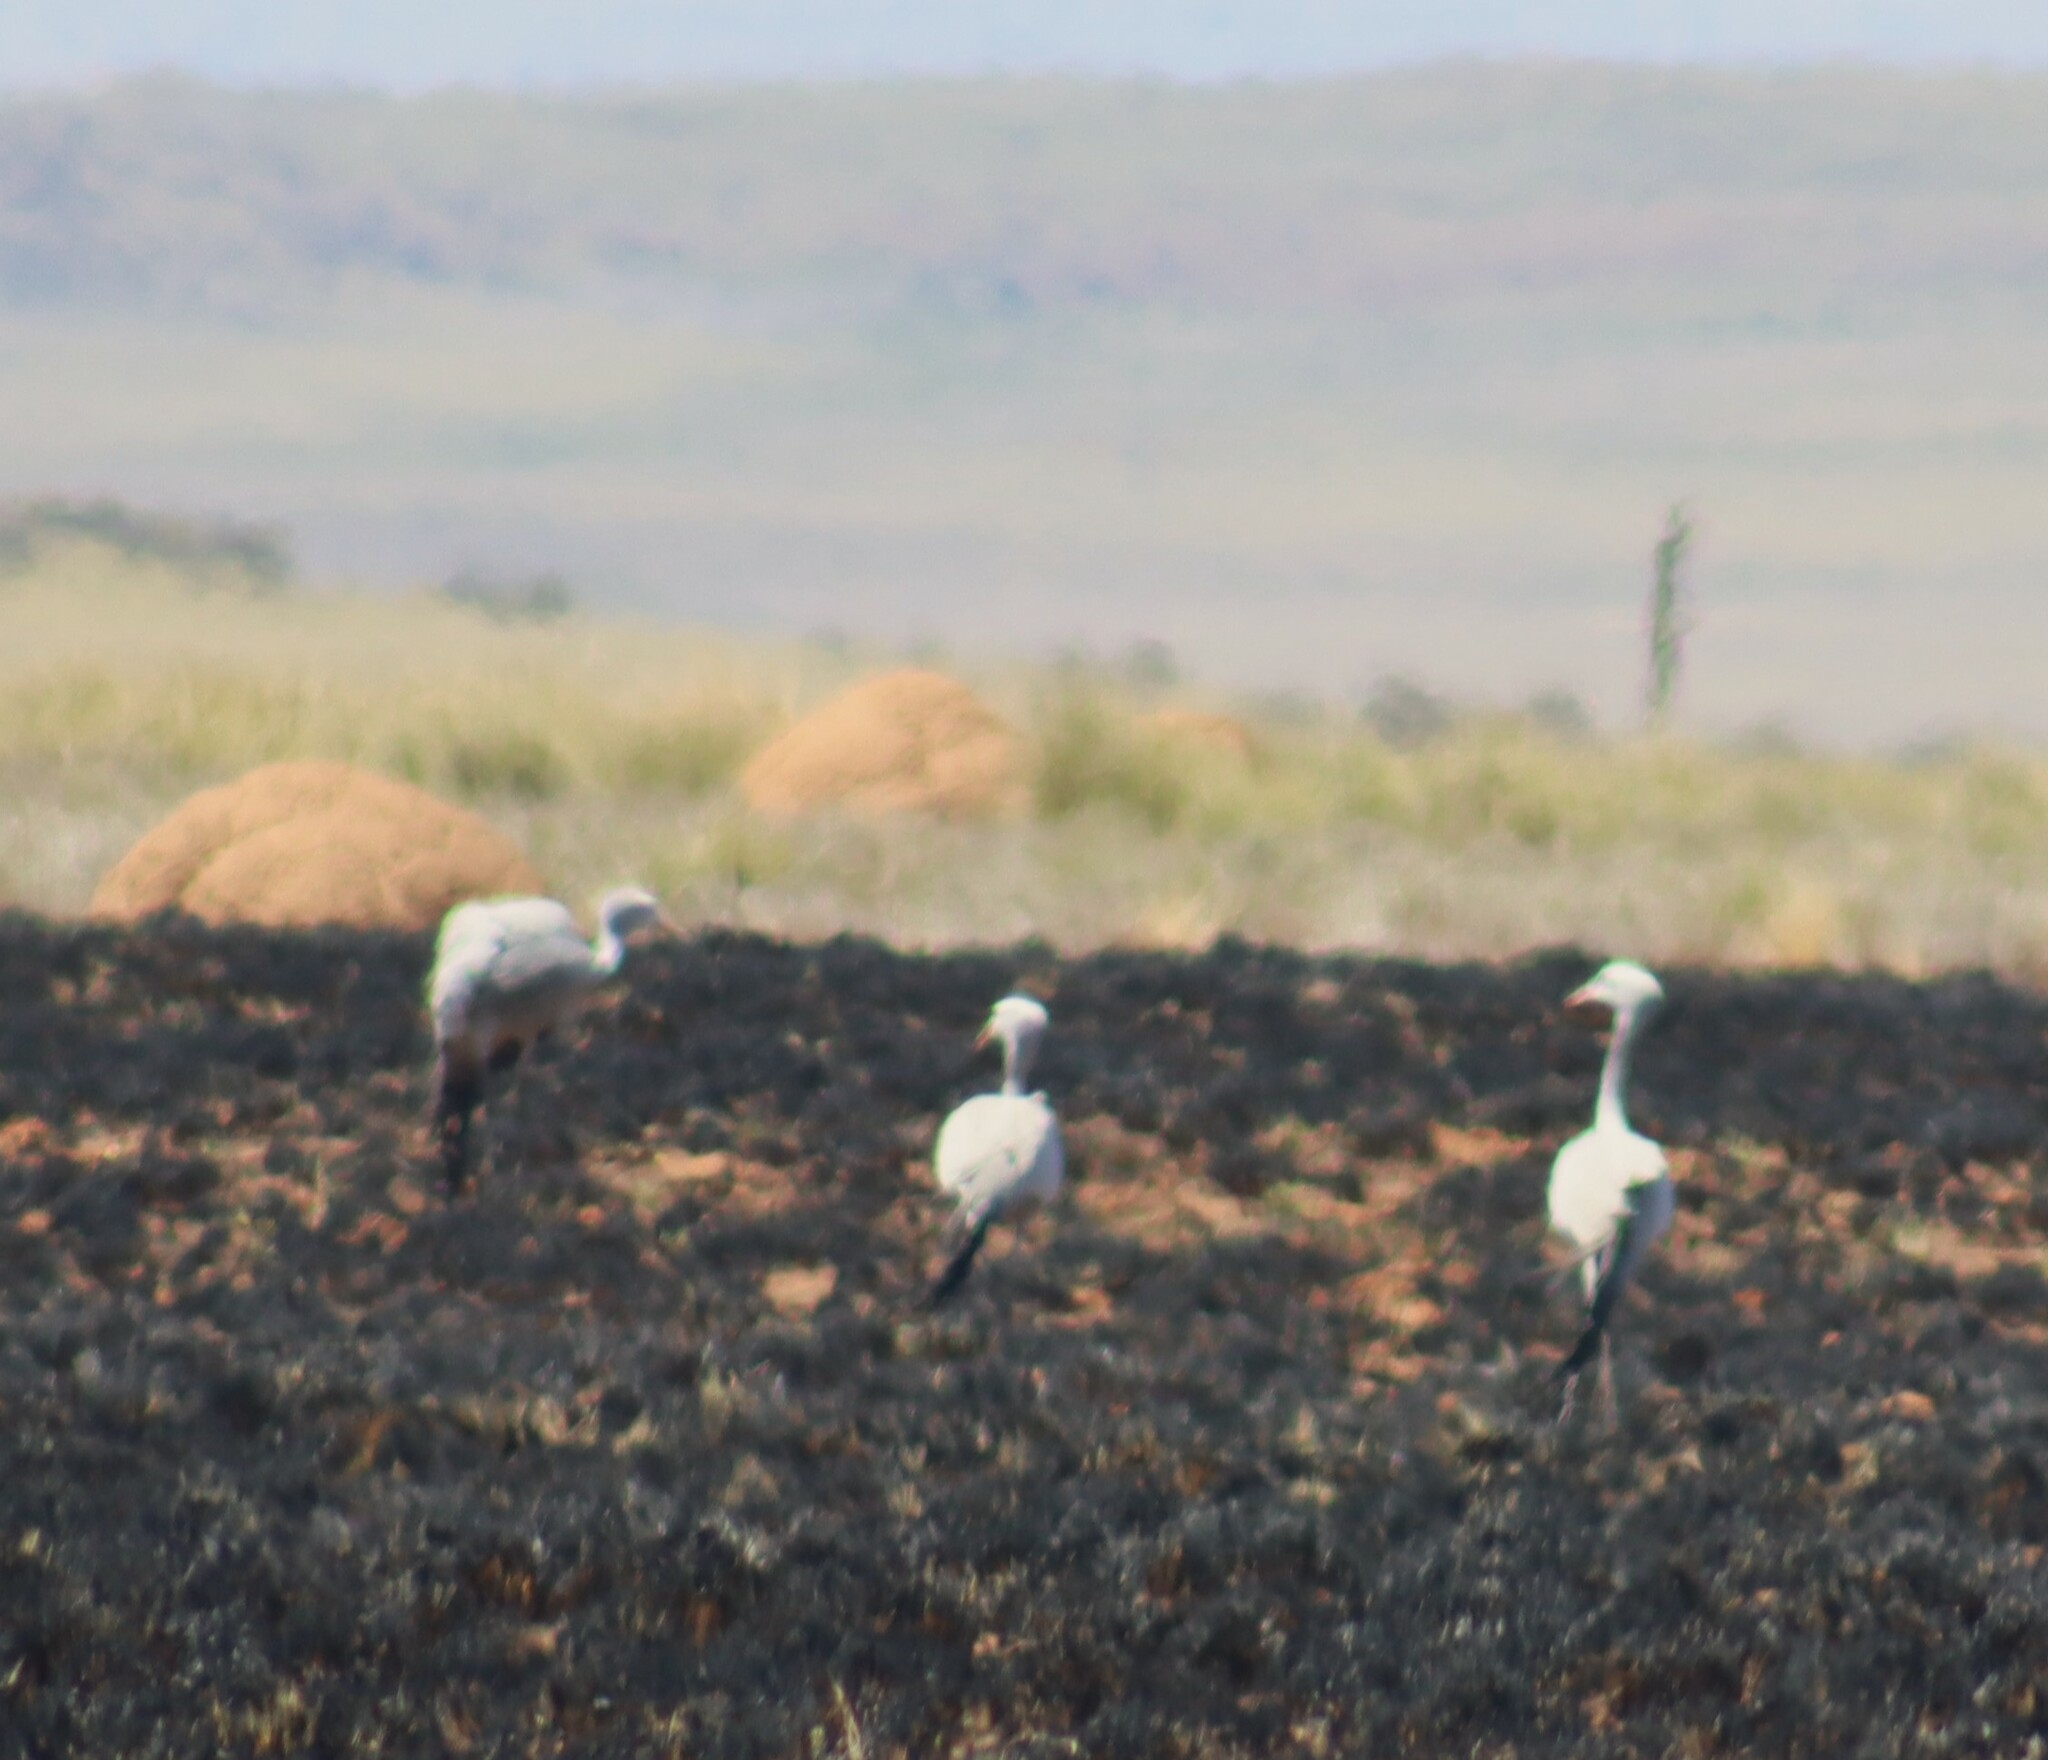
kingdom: Animalia
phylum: Chordata
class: Aves
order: Gruiformes
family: Gruidae
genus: Anthropoides
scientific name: Anthropoides paradiseus
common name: Blue crane
